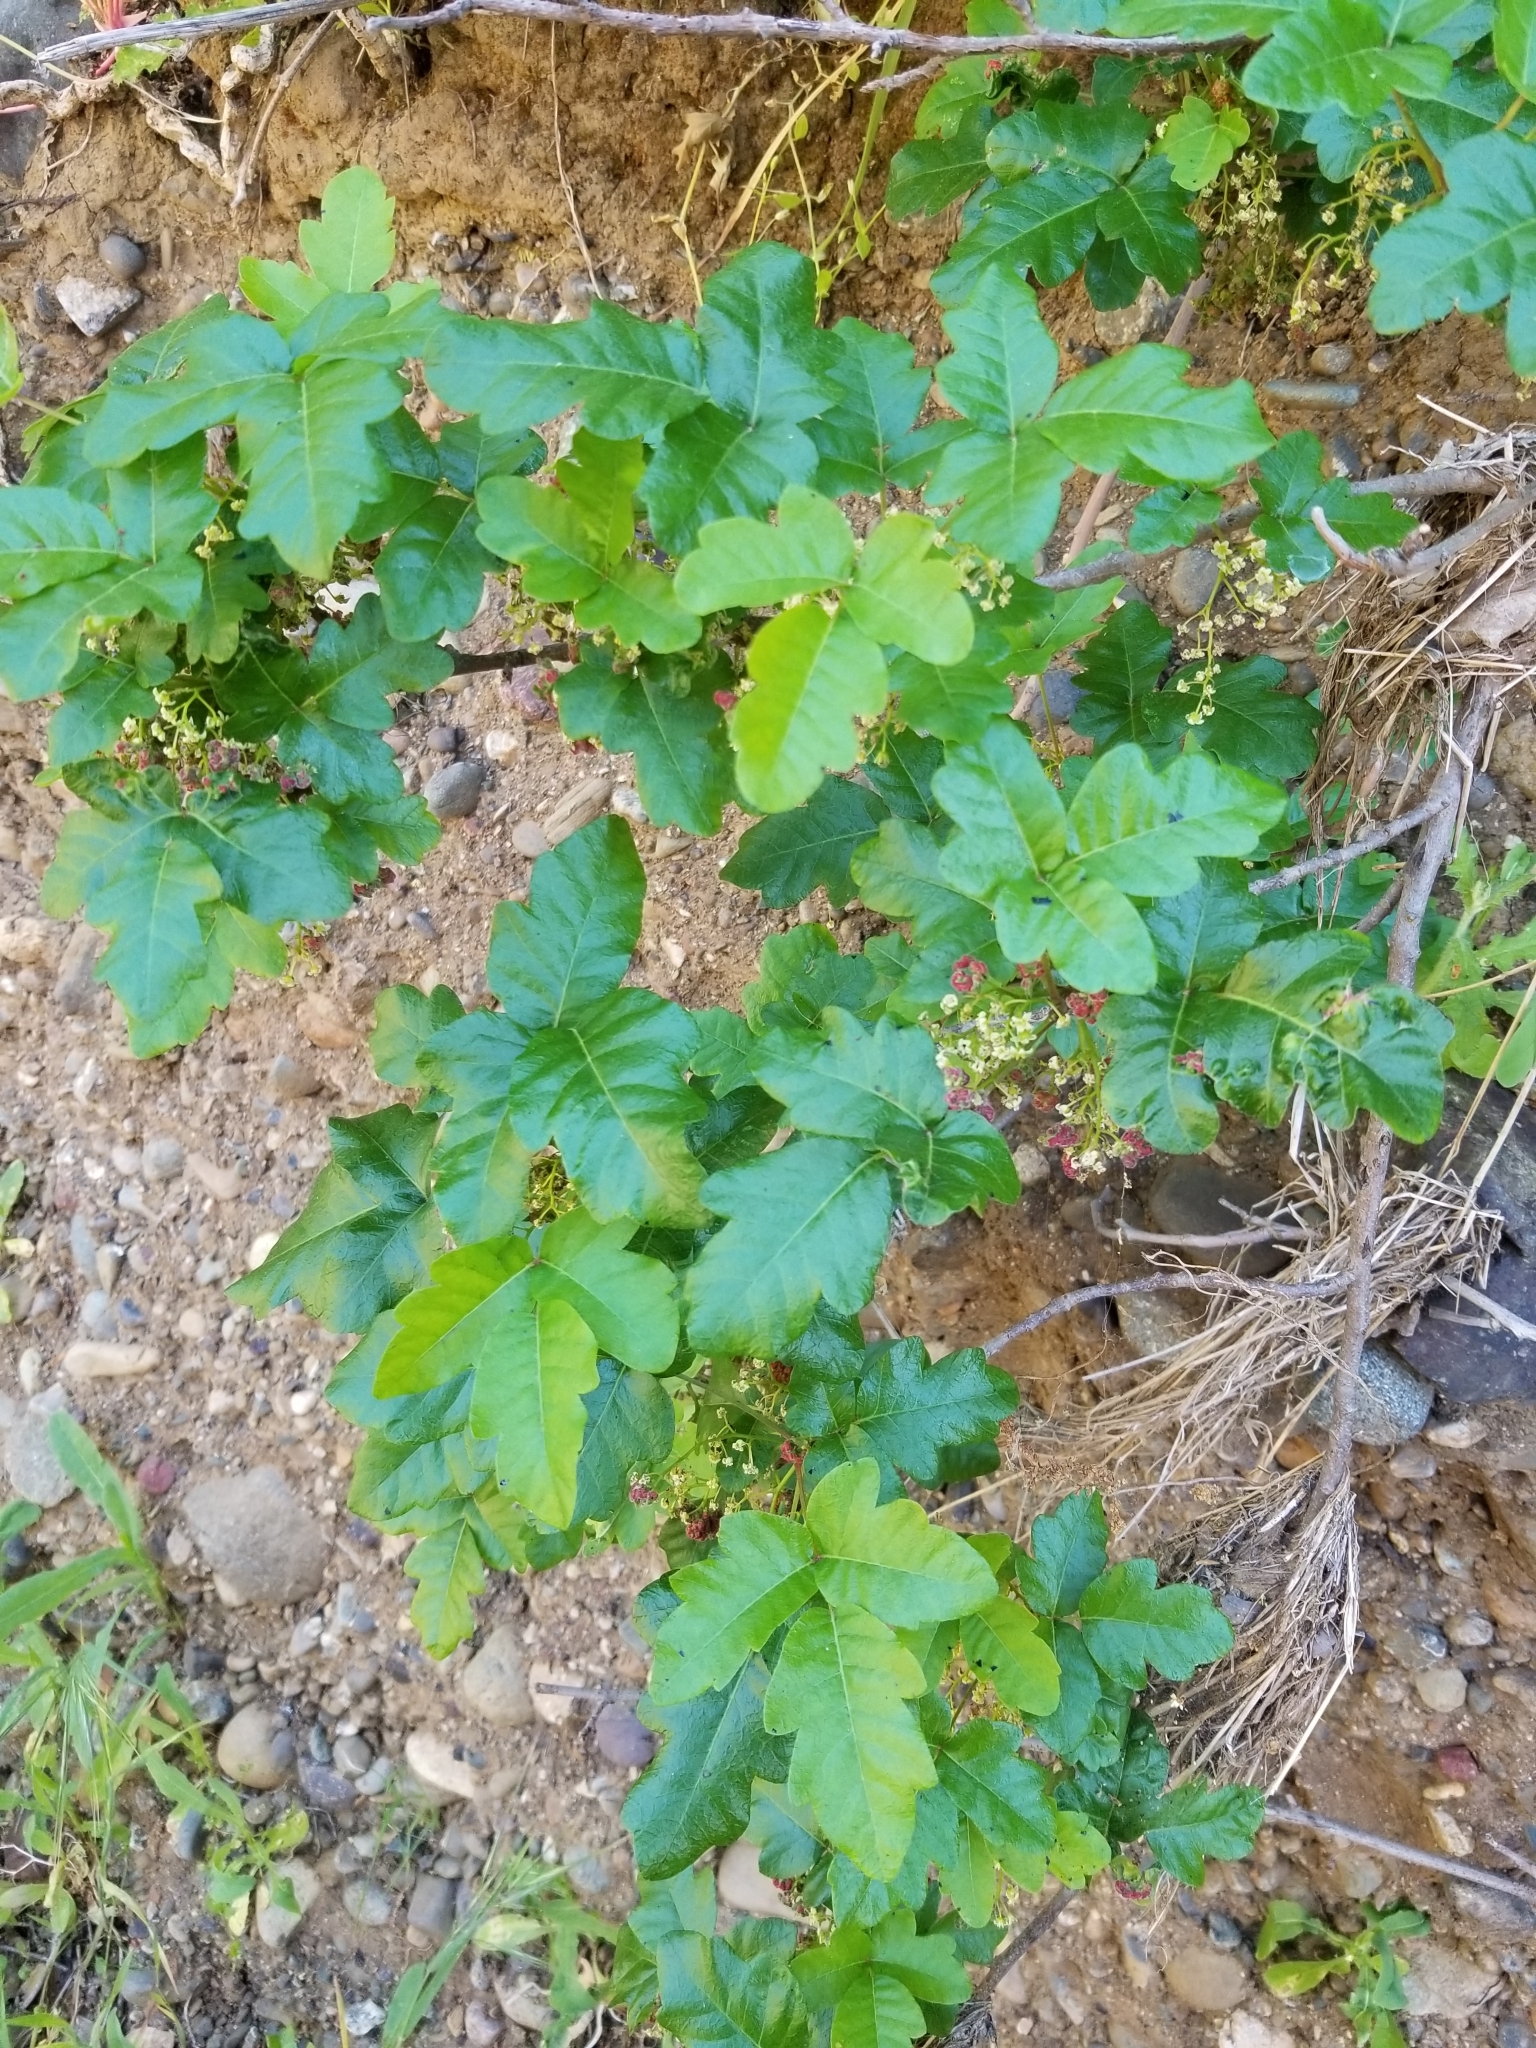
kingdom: Plantae
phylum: Tracheophyta
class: Magnoliopsida
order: Sapindales
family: Anacardiaceae
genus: Toxicodendron
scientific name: Toxicodendron diversilobum
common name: Pacific poison-oak
